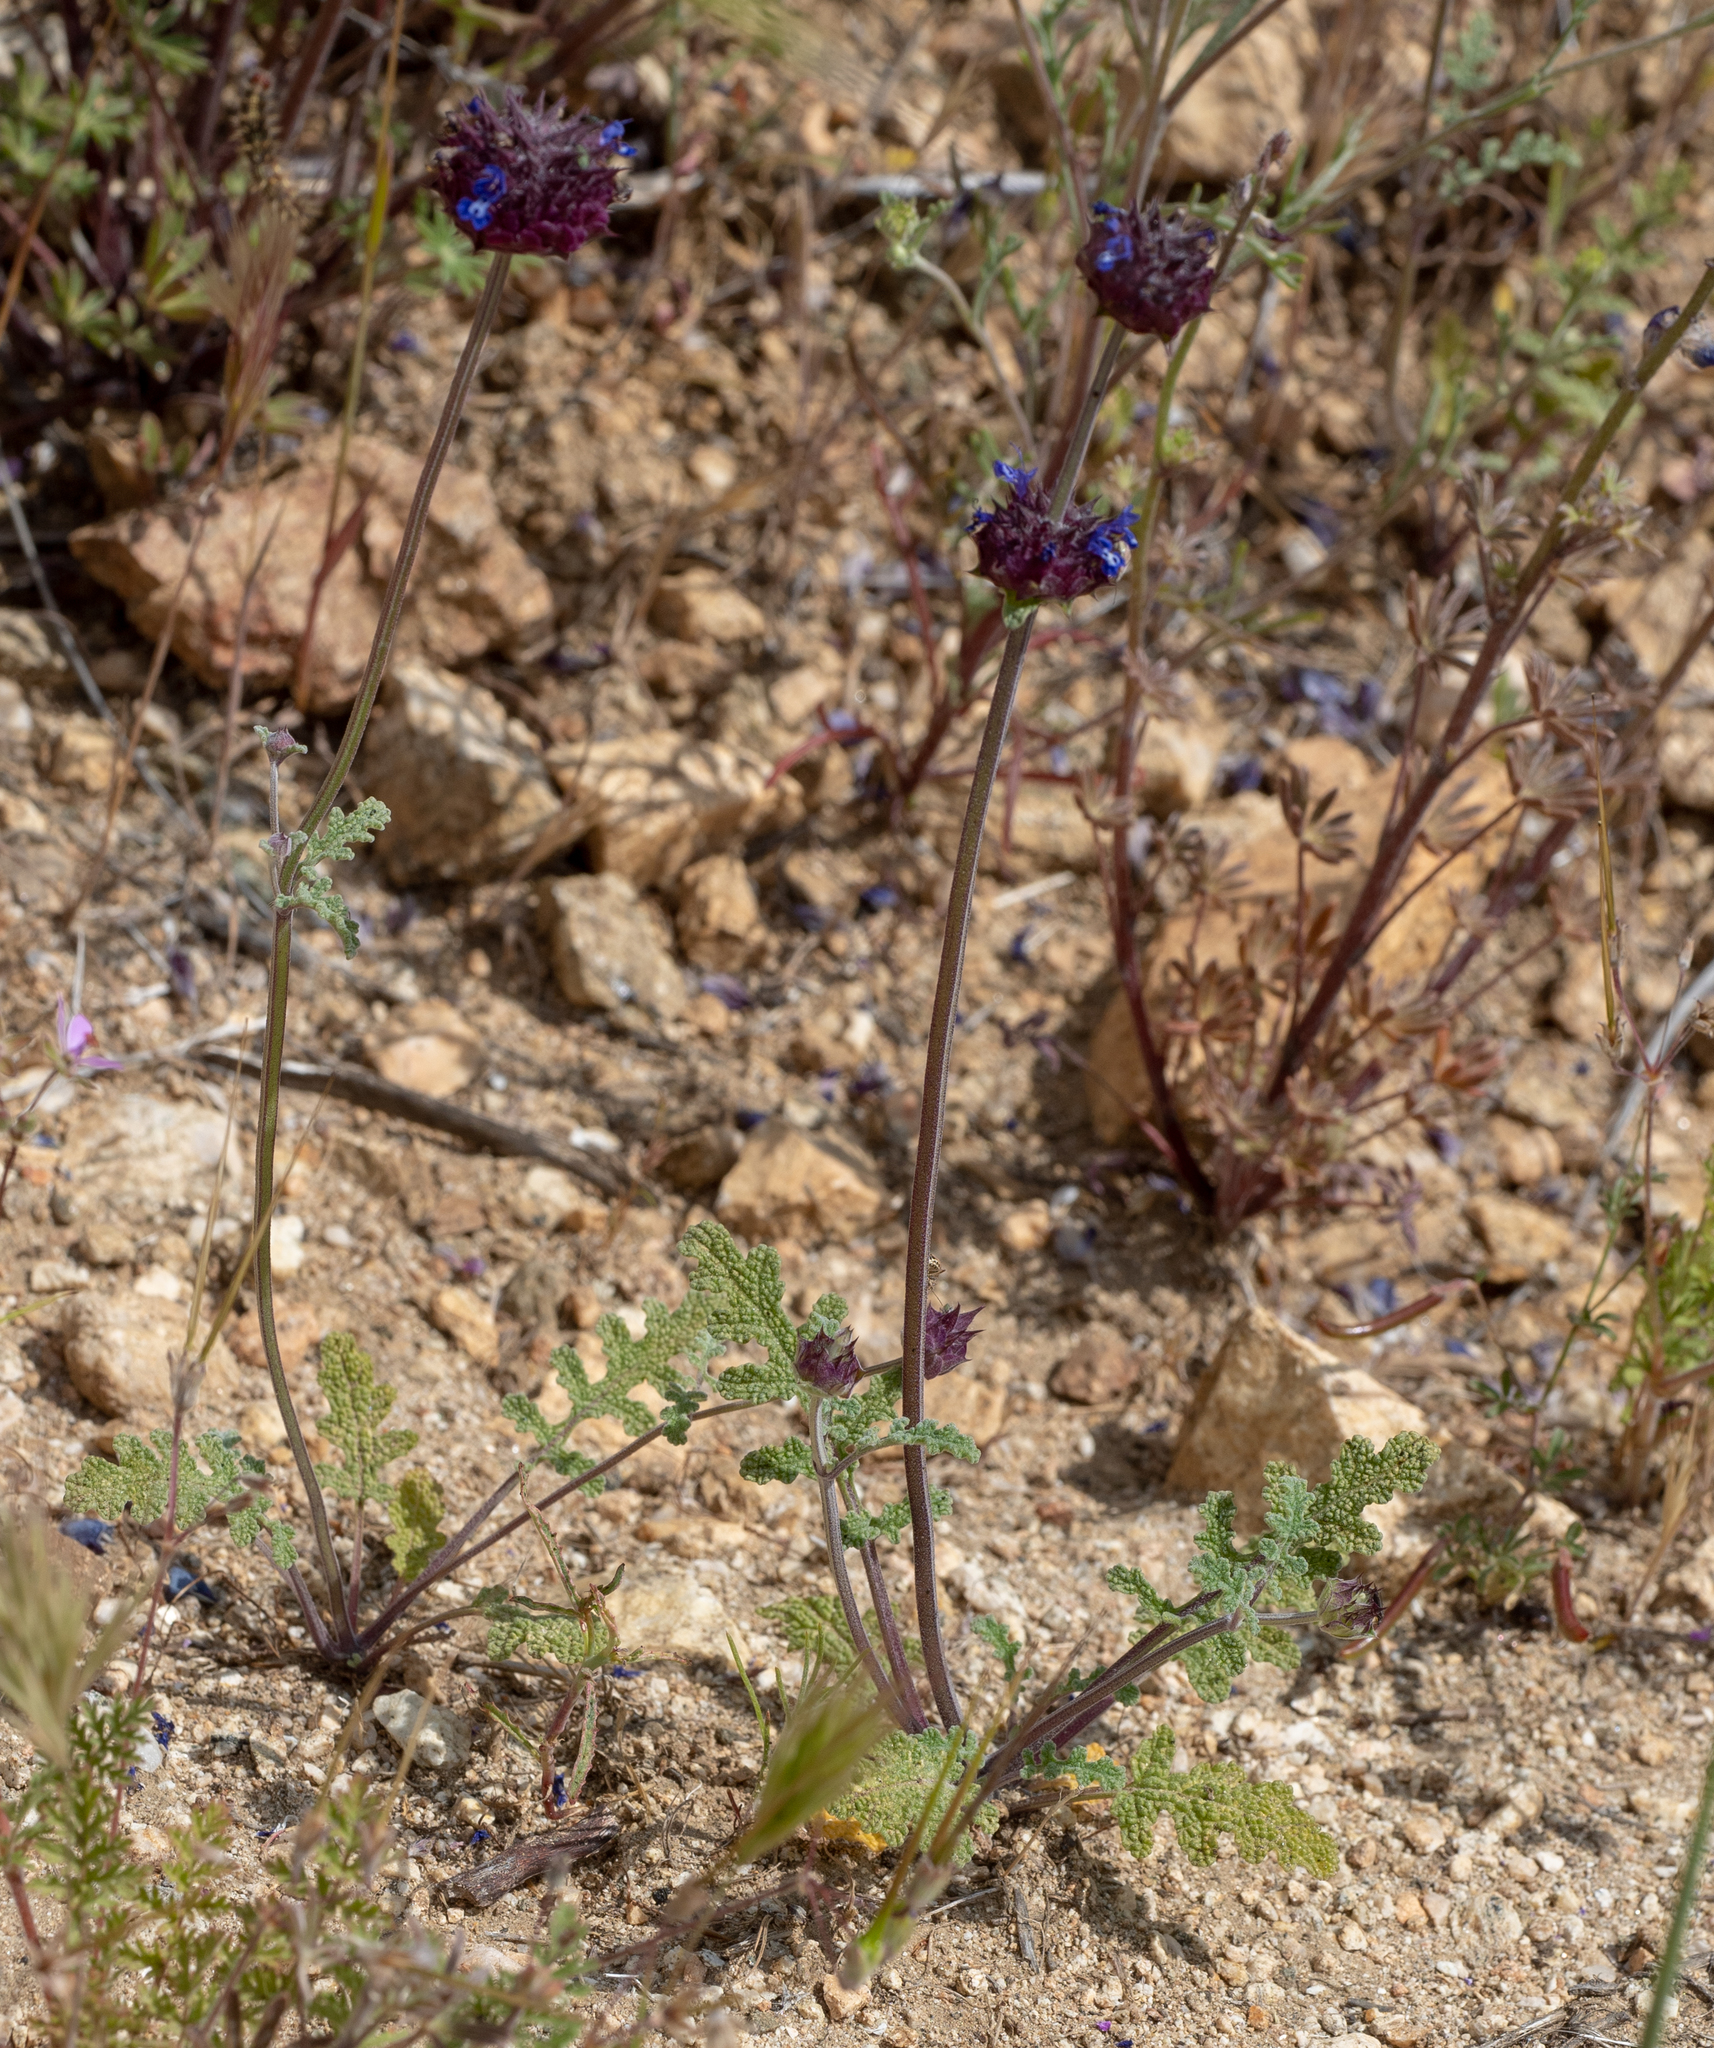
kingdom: Plantae
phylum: Tracheophyta
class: Magnoliopsida
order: Lamiales
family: Lamiaceae
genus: Salvia
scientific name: Salvia columbariae
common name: Chia
